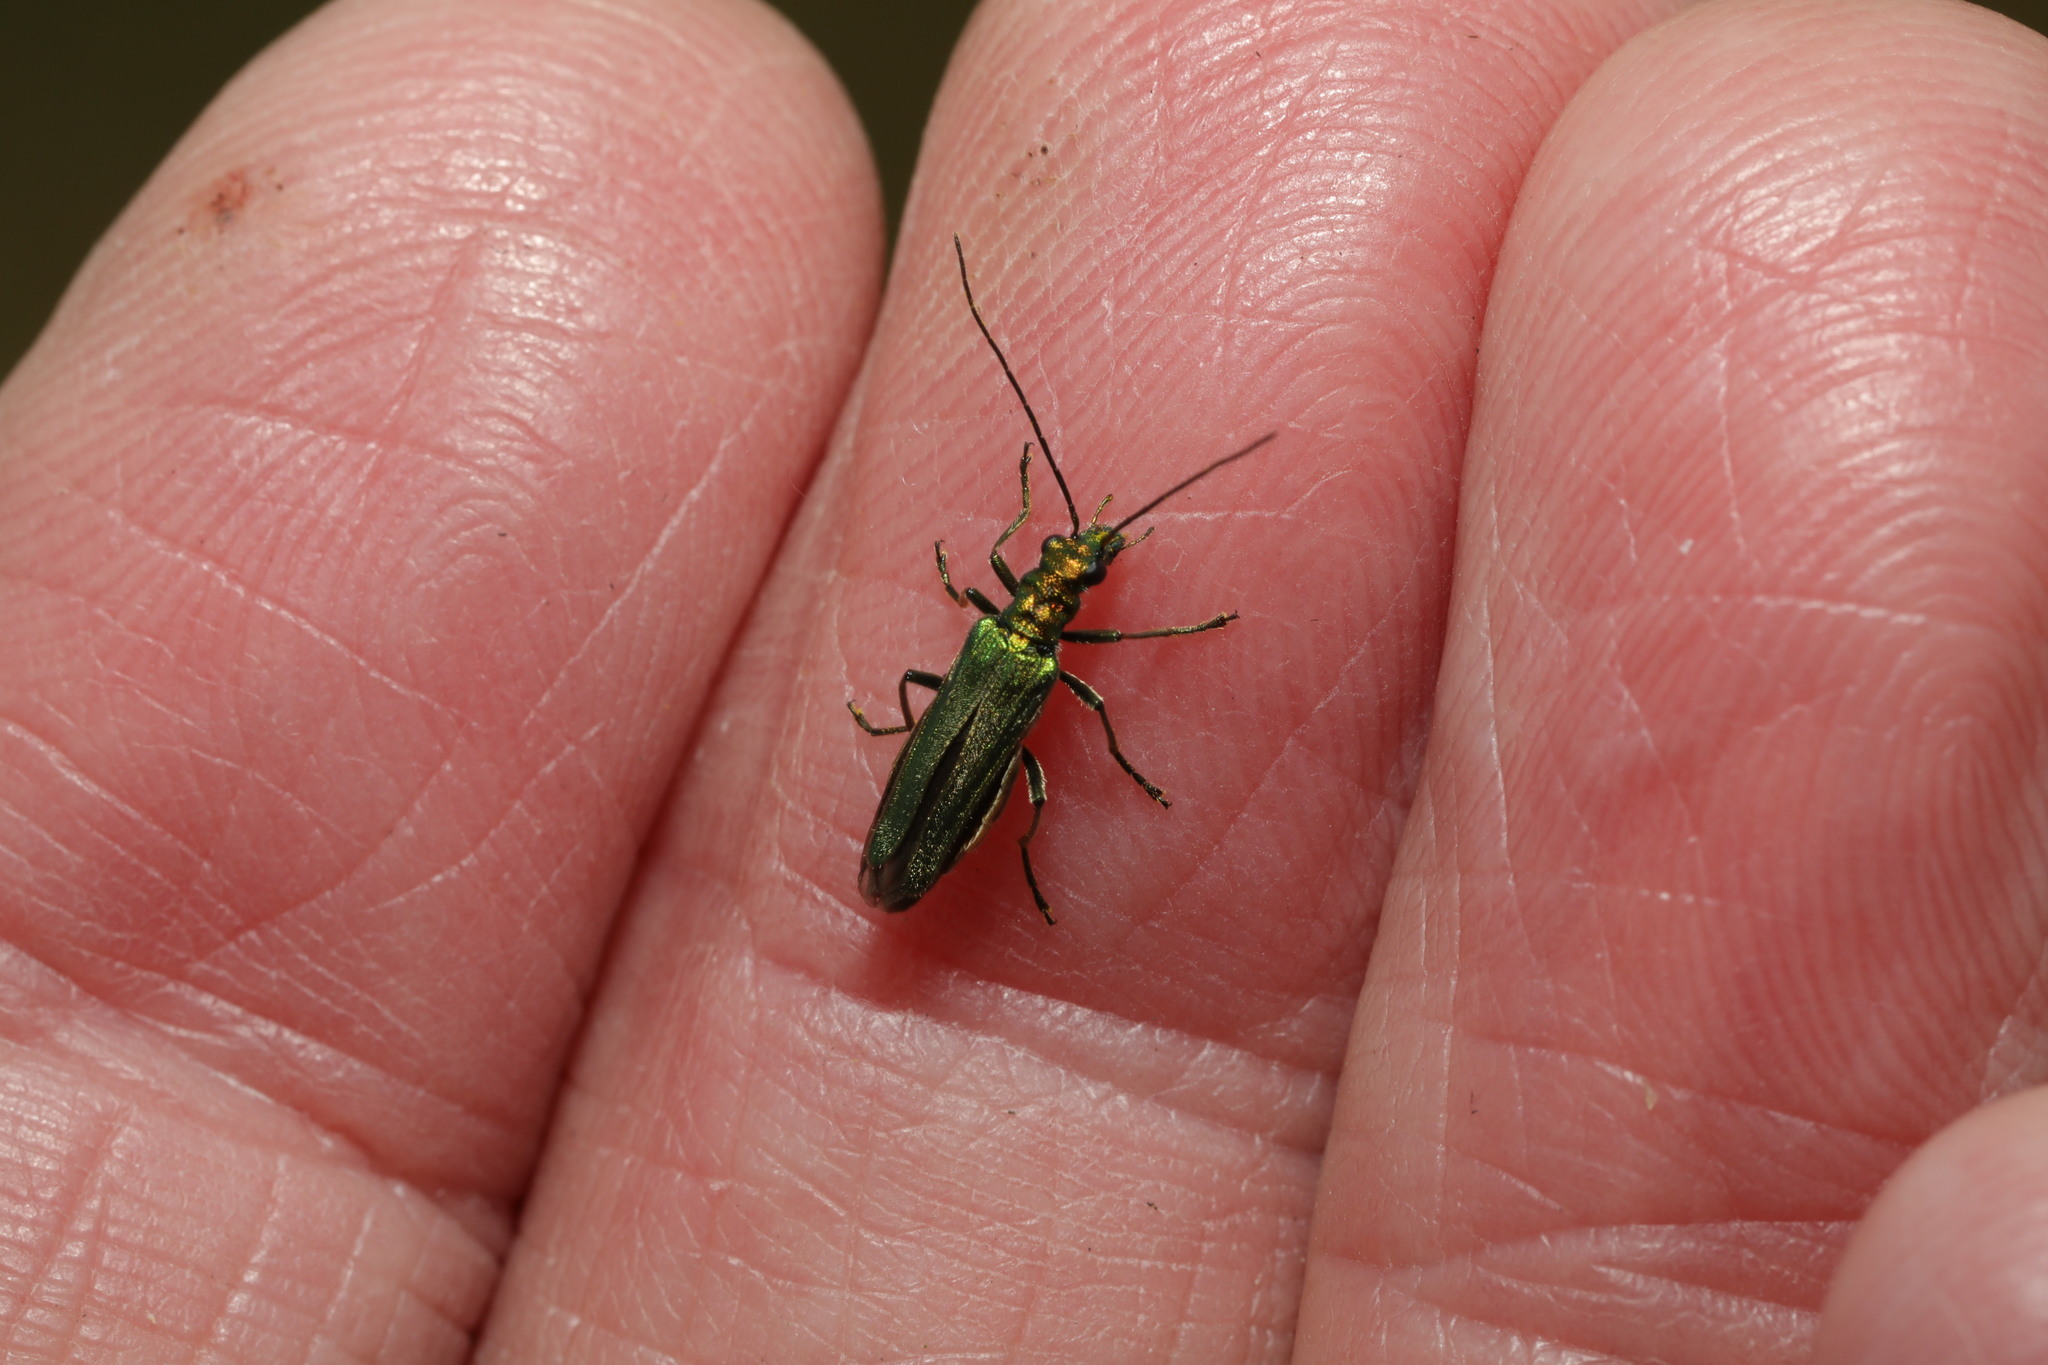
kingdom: Animalia
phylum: Arthropoda
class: Insecta
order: Coleoptera
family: Oedemeridae
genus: Oedemera
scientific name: Oedemera nobilis
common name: Swollen-thighed beetle
